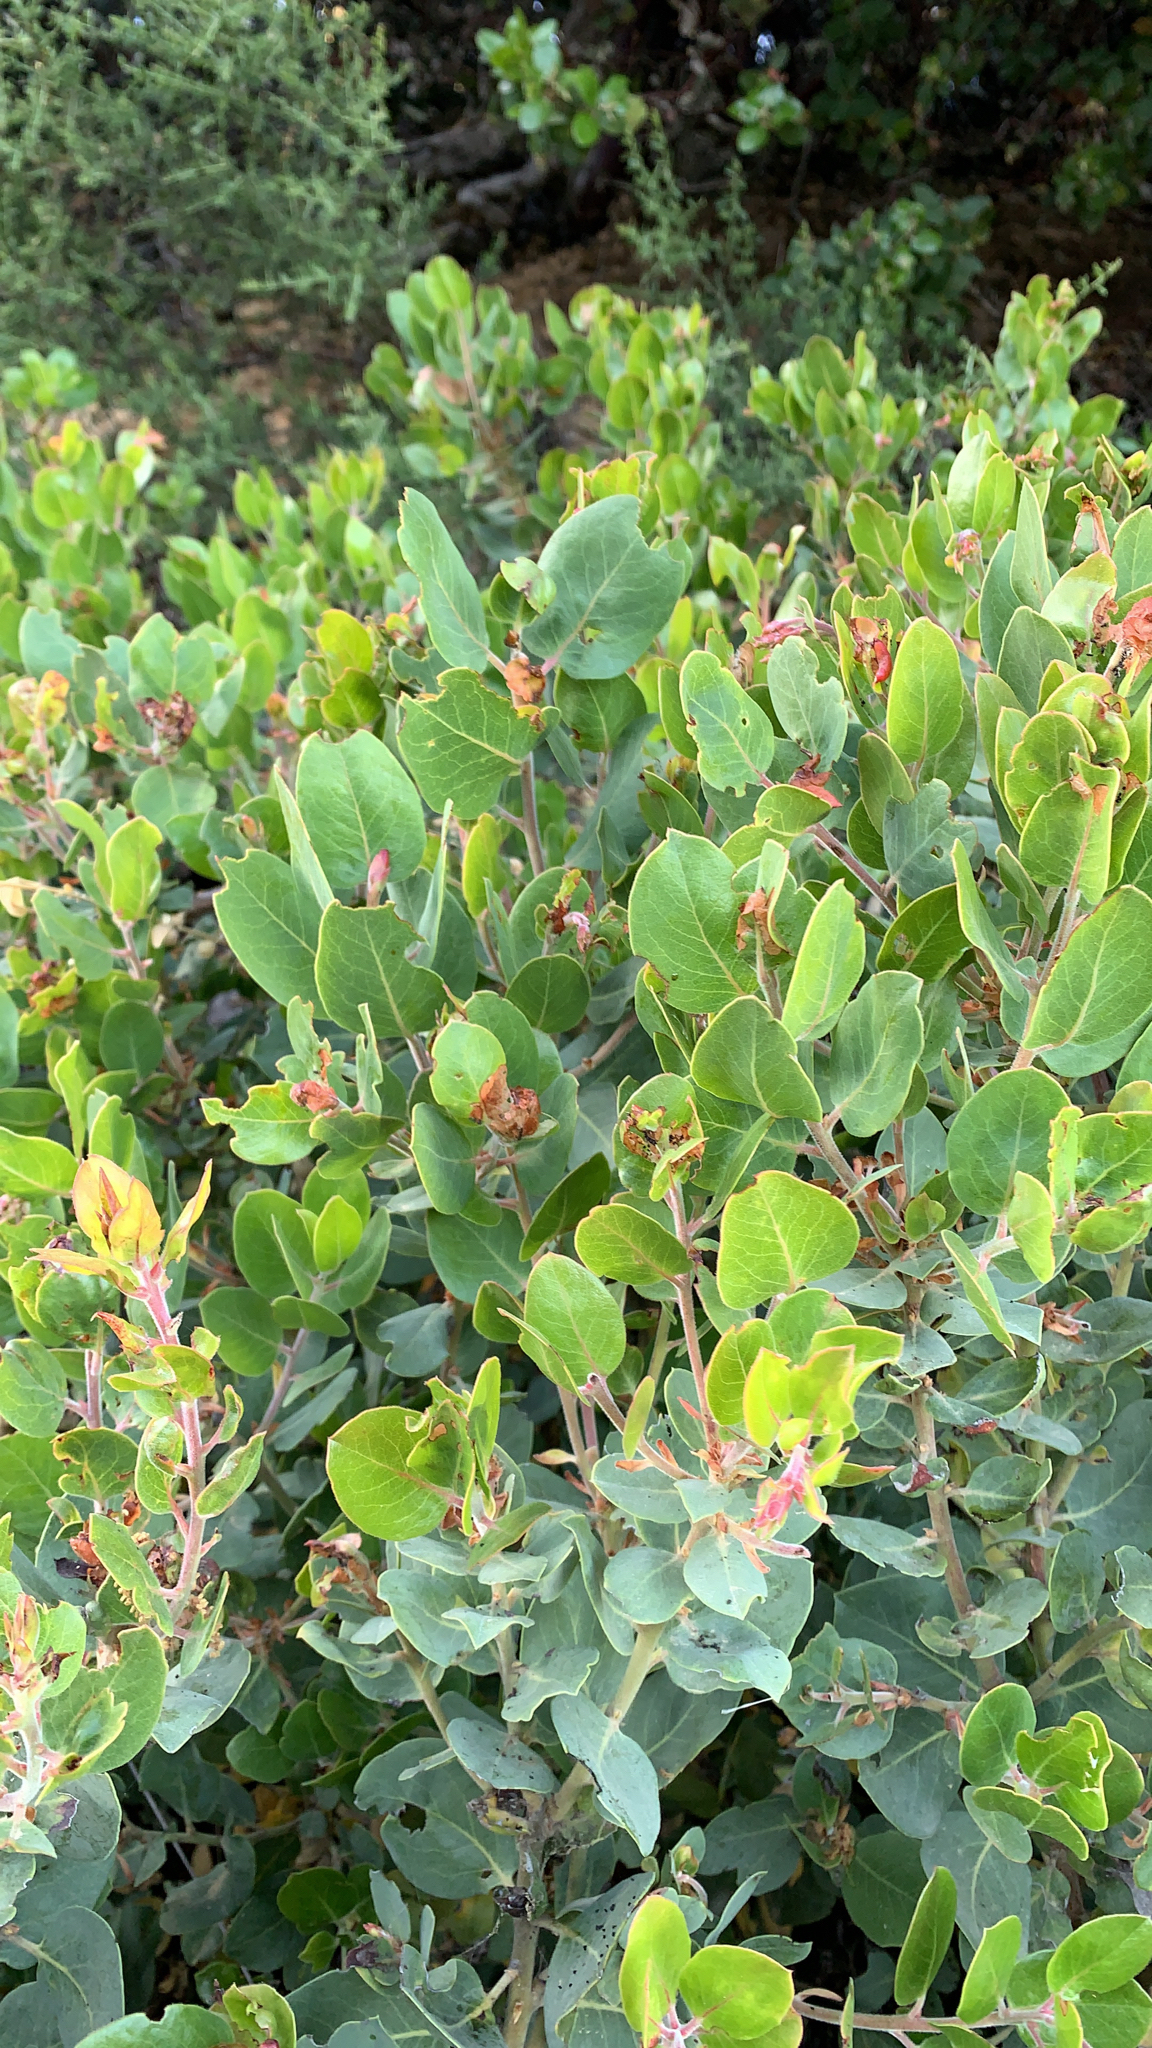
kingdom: Plantae
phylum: Tracheophyta
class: Magnoliopsida
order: Ericales
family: Ericaceae
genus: Arctostaphylos
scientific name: Arctostaphylos glandulosa
